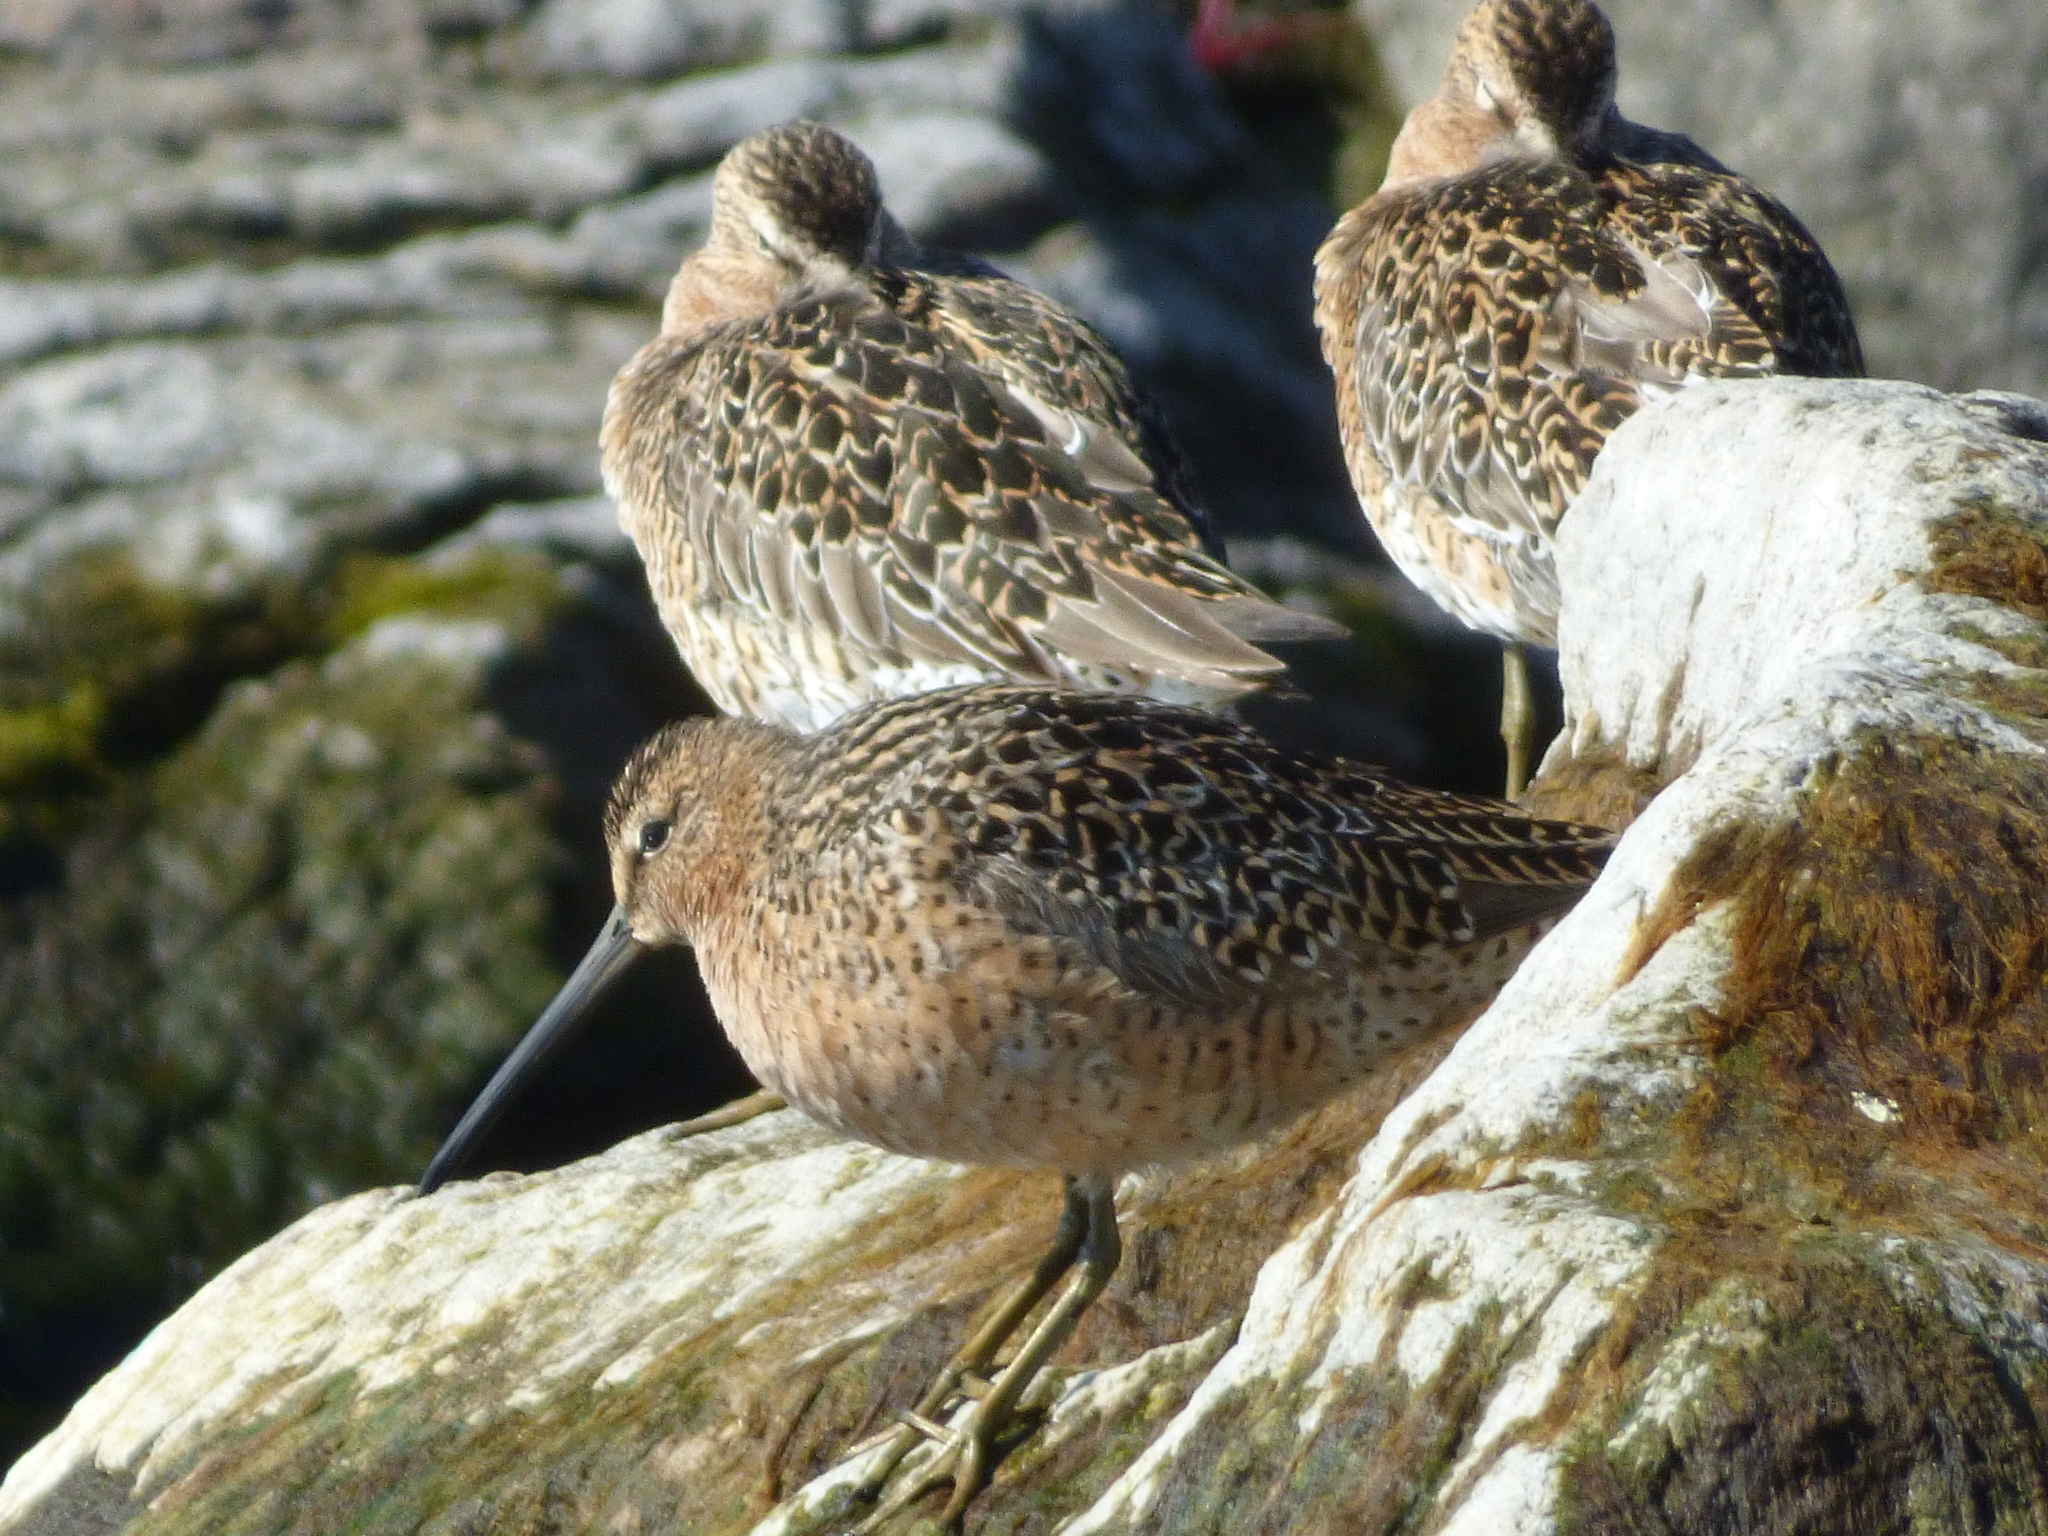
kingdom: Animalia
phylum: Chordata
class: Aves
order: Charadriiformes
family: Scolopacidae
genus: Limnodromus
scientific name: Limnodromus griseus
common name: Short-billed dowitcher
